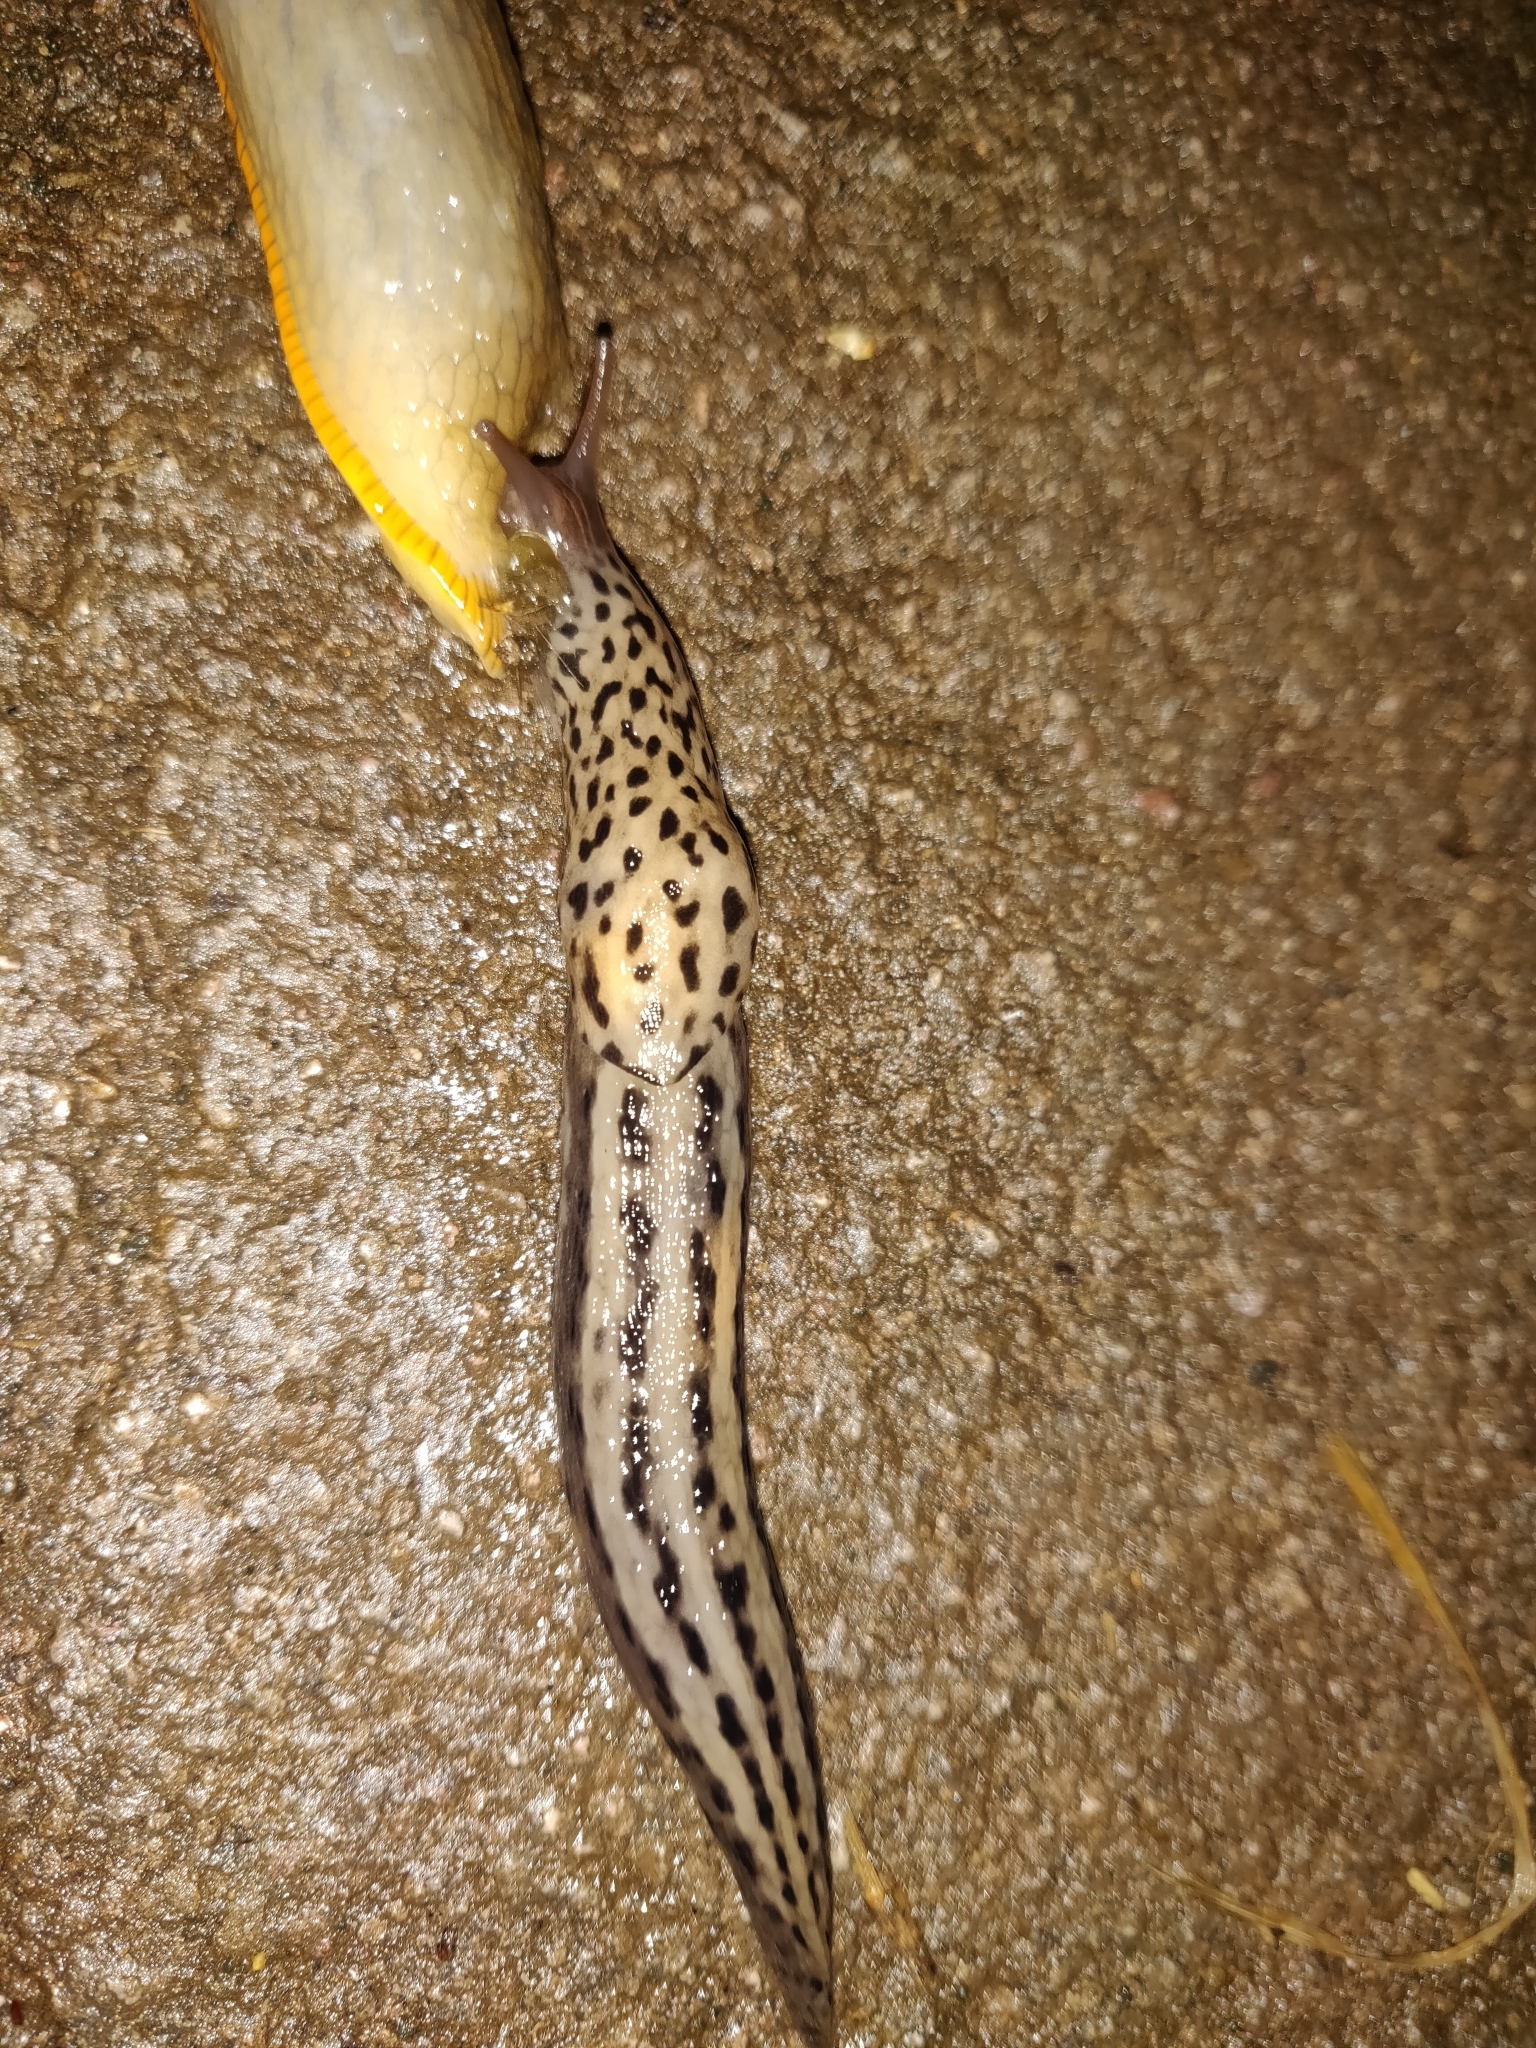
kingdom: Animalia
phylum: Mollusca
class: Gastropoda
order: Stylommatophora
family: Limacidae
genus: Limax
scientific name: Limax maximus
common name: Great grey slug
